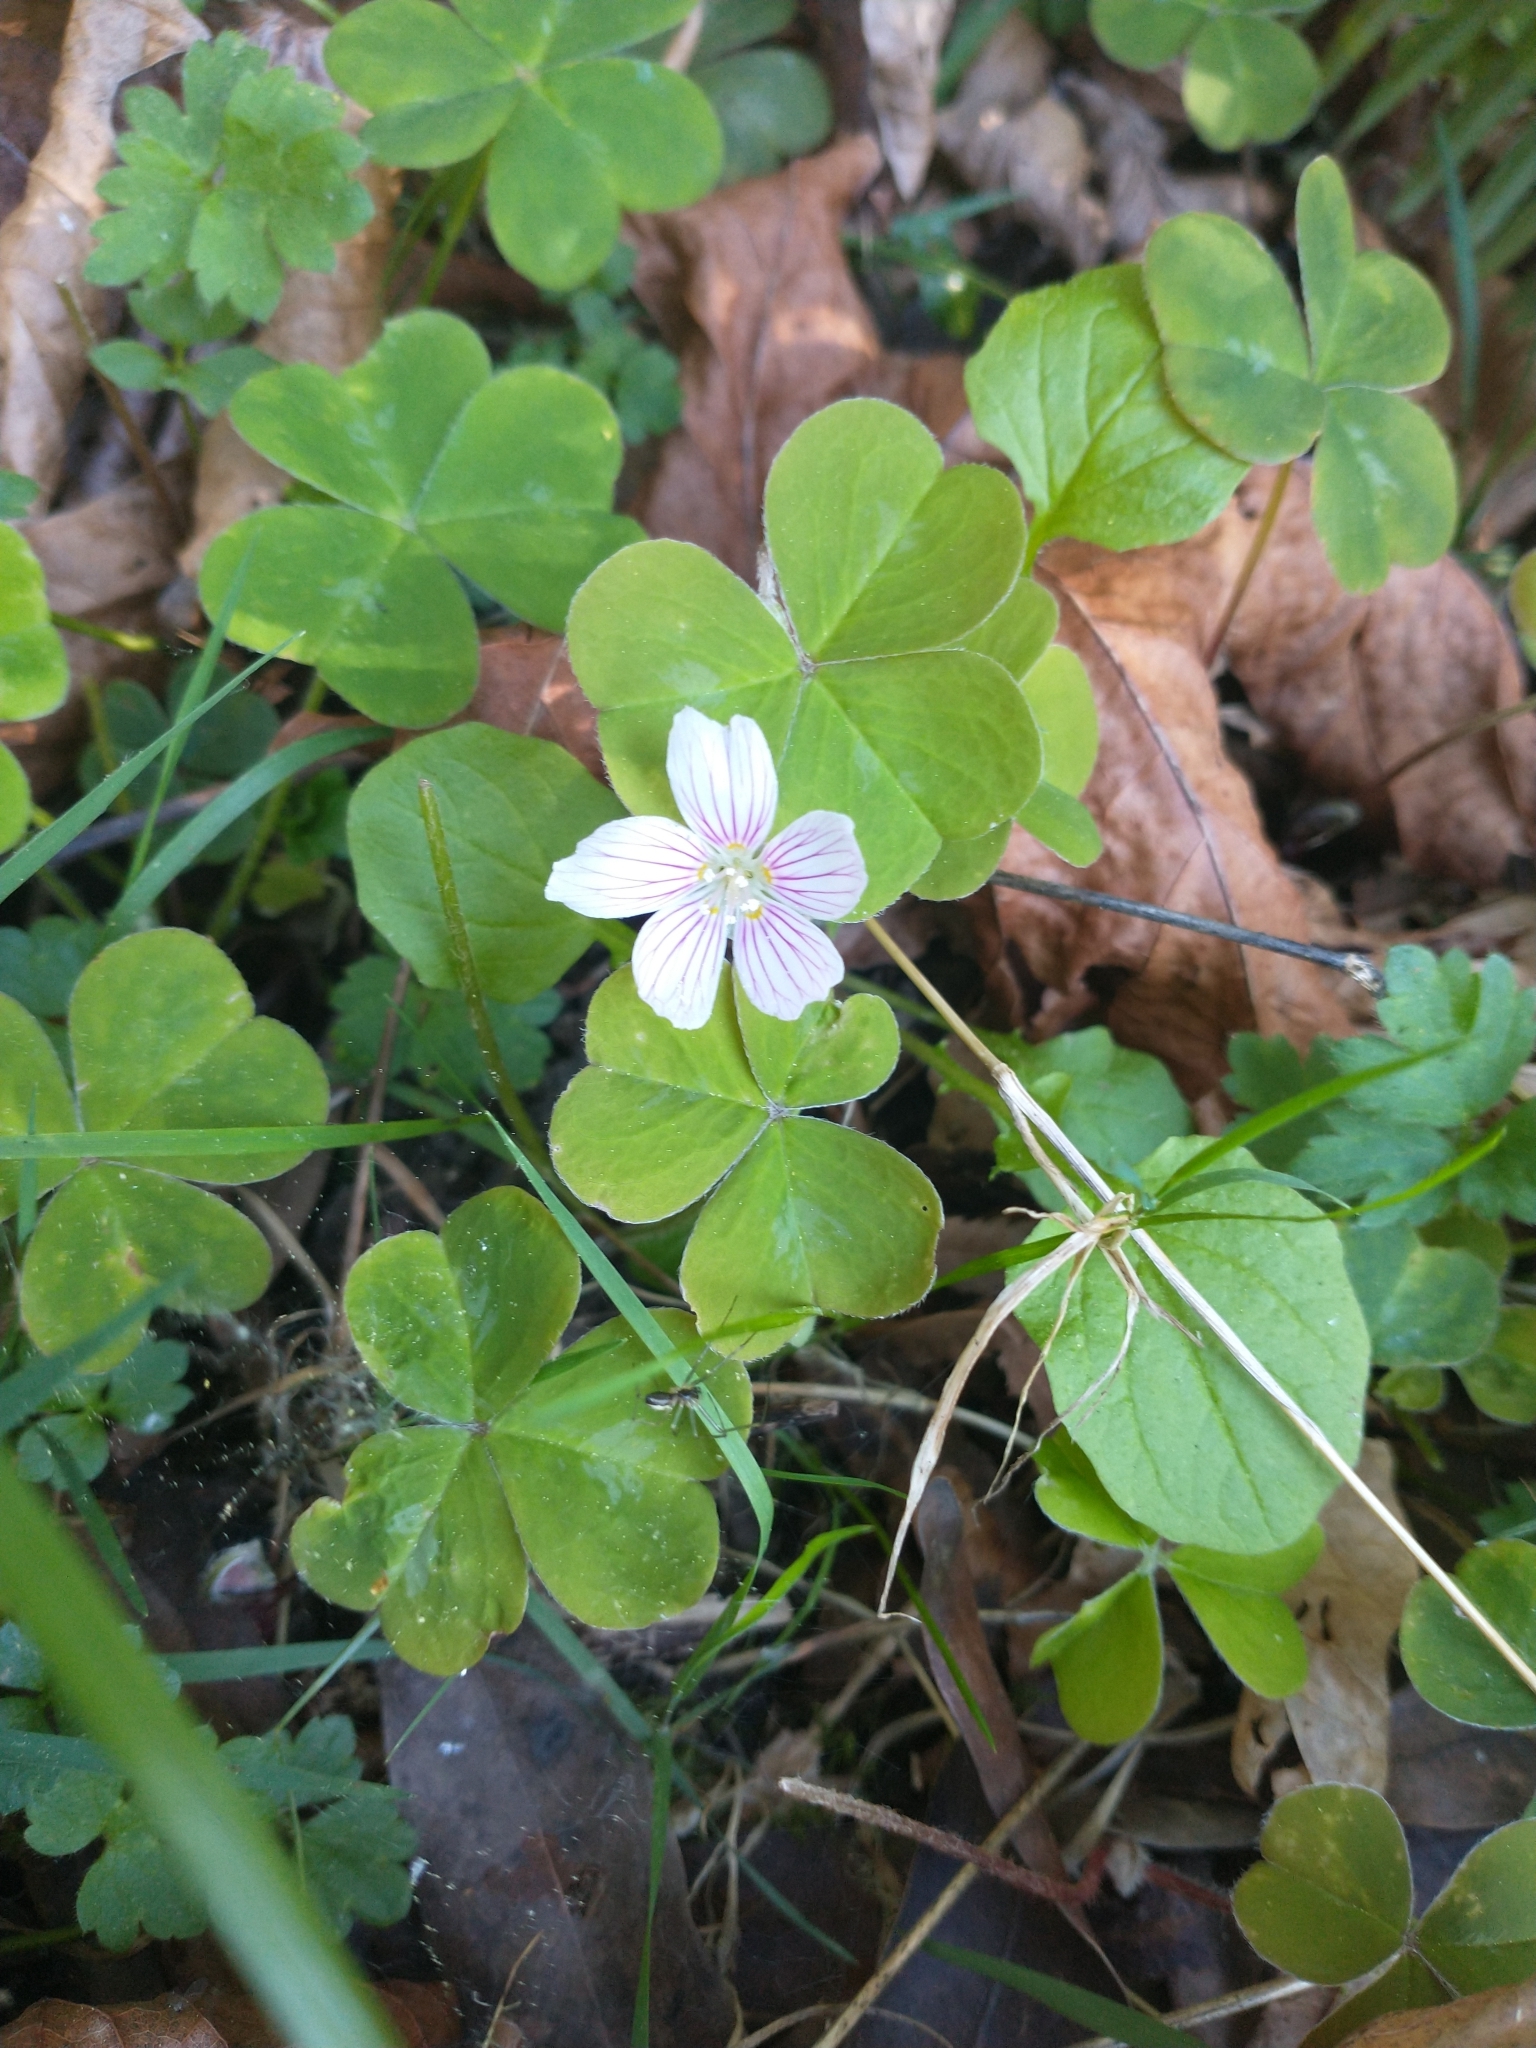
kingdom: Plantae
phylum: Tracheophyta
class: Magnoliopsida
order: Oxalidales
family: Oxalidaceae
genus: Oxalis
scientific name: Oxalis oregana
